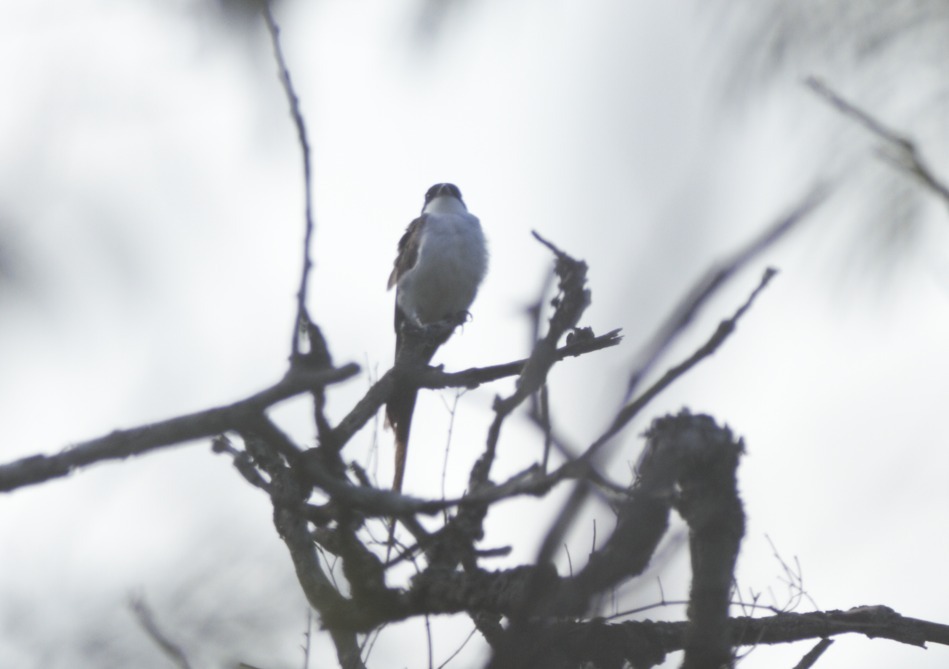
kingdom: Animalia
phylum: Chordata
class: Aves
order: Passeriformes
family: Tyrannidae
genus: Tyrannus
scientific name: Tyrannus savana
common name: Fork-tailed flycatcher
